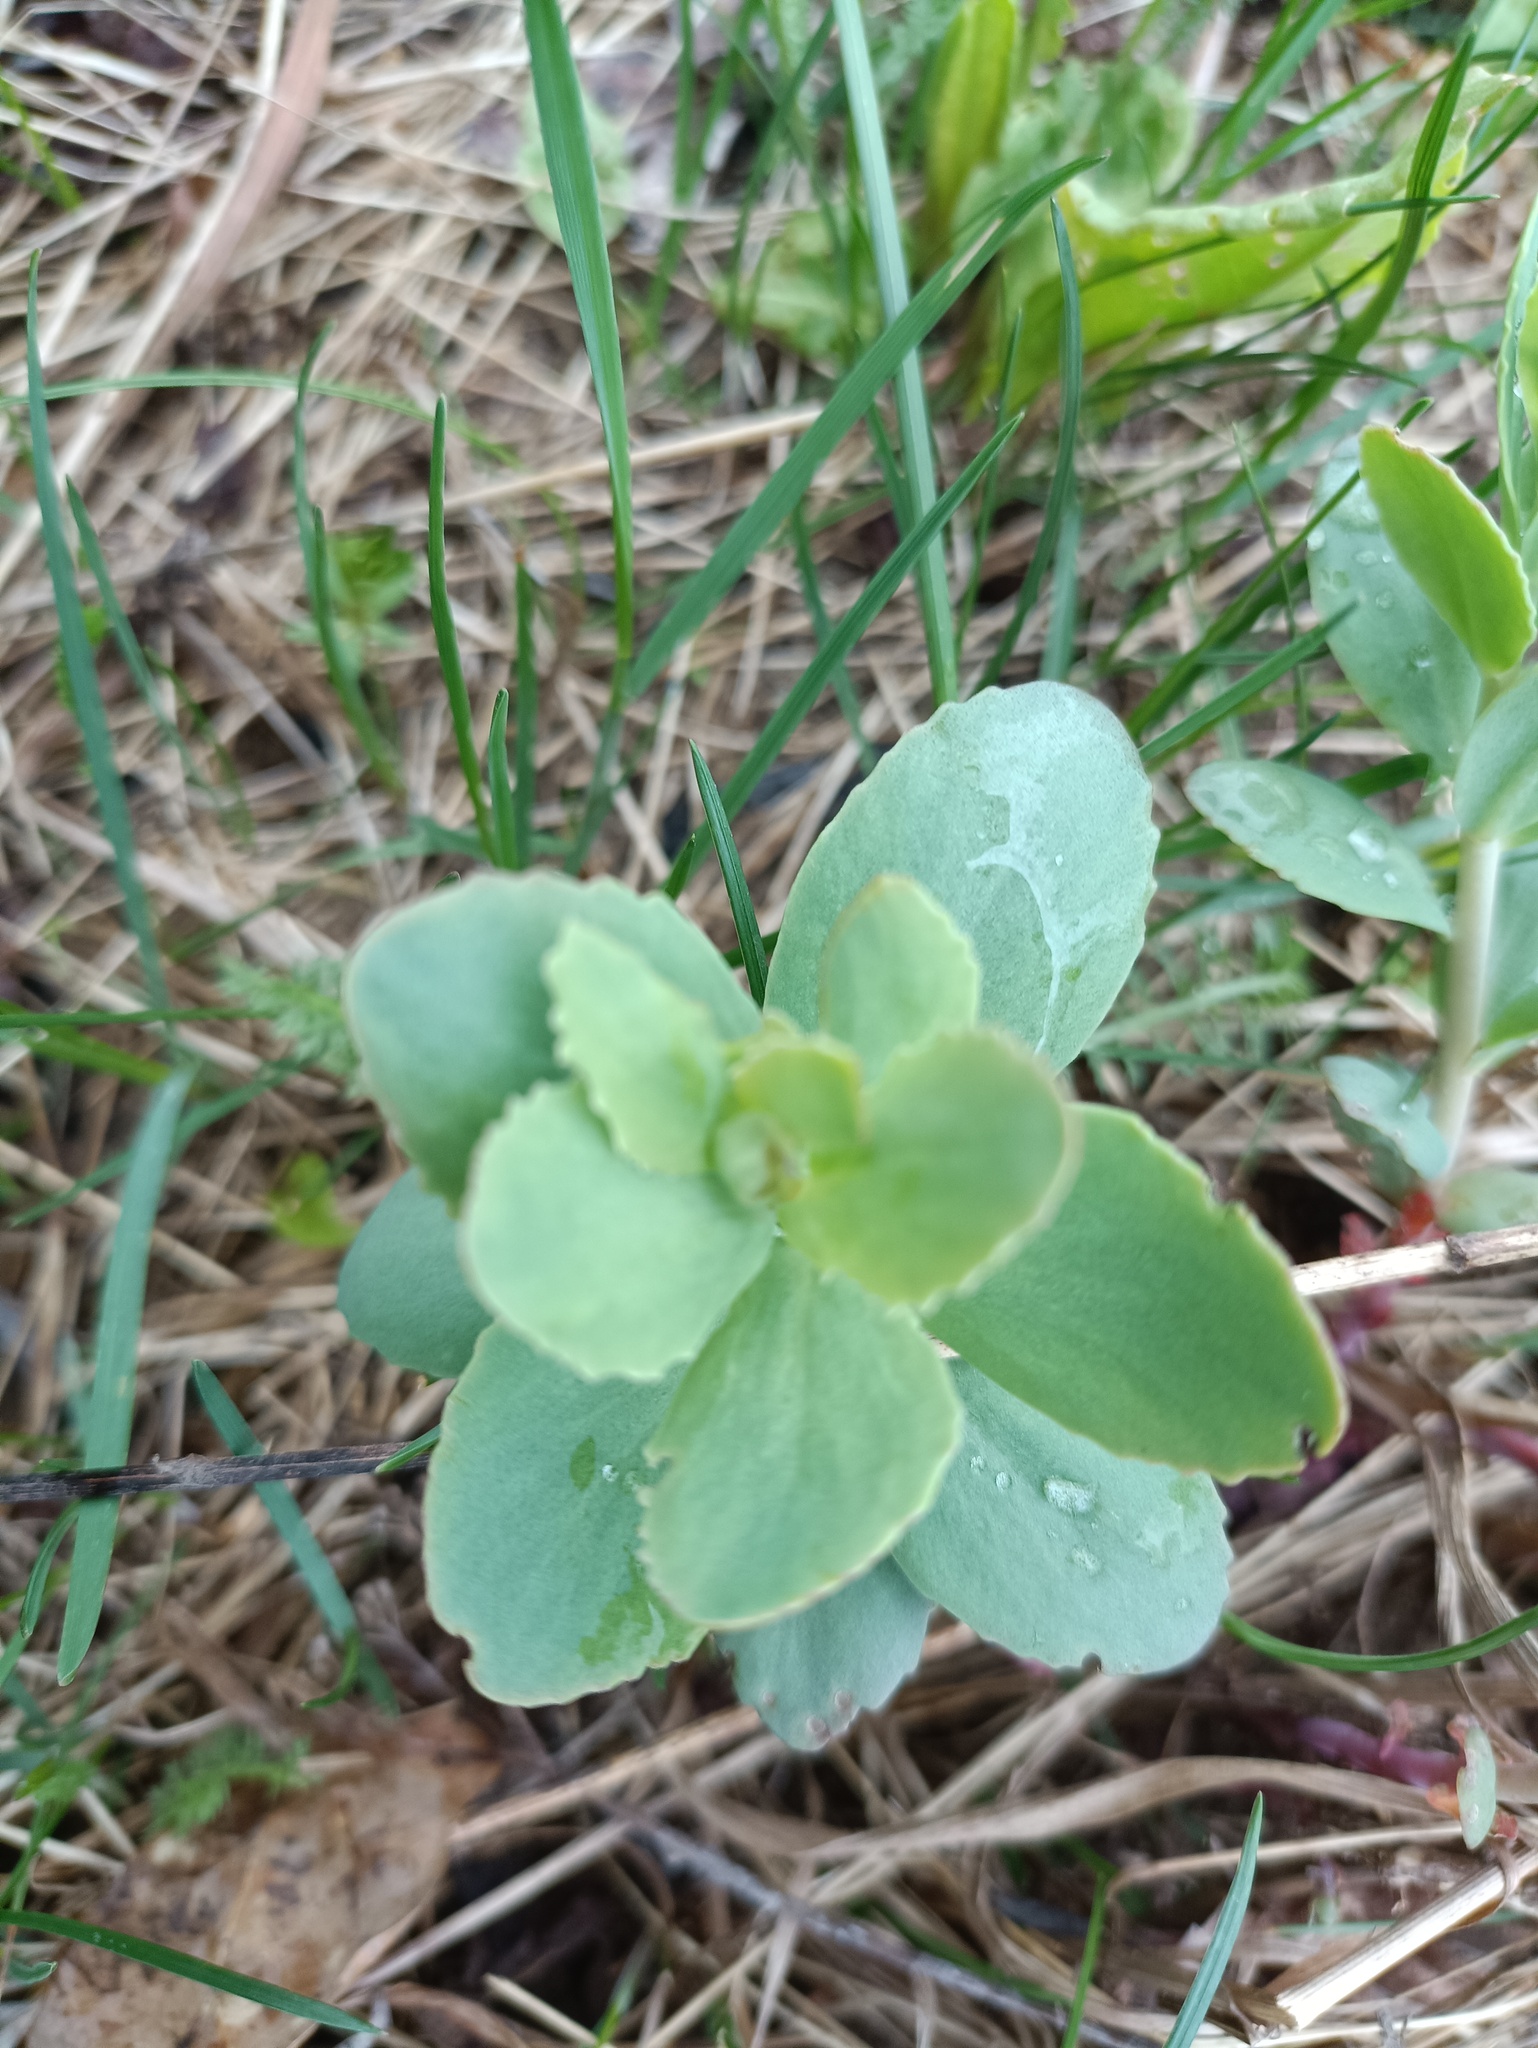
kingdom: Plantae
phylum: Tracheophyta
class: Magnoliopsida
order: Saxifragales
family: Crassulaceae
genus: Hylotelephium
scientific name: Hylotelephium telephium
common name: Live-forever
